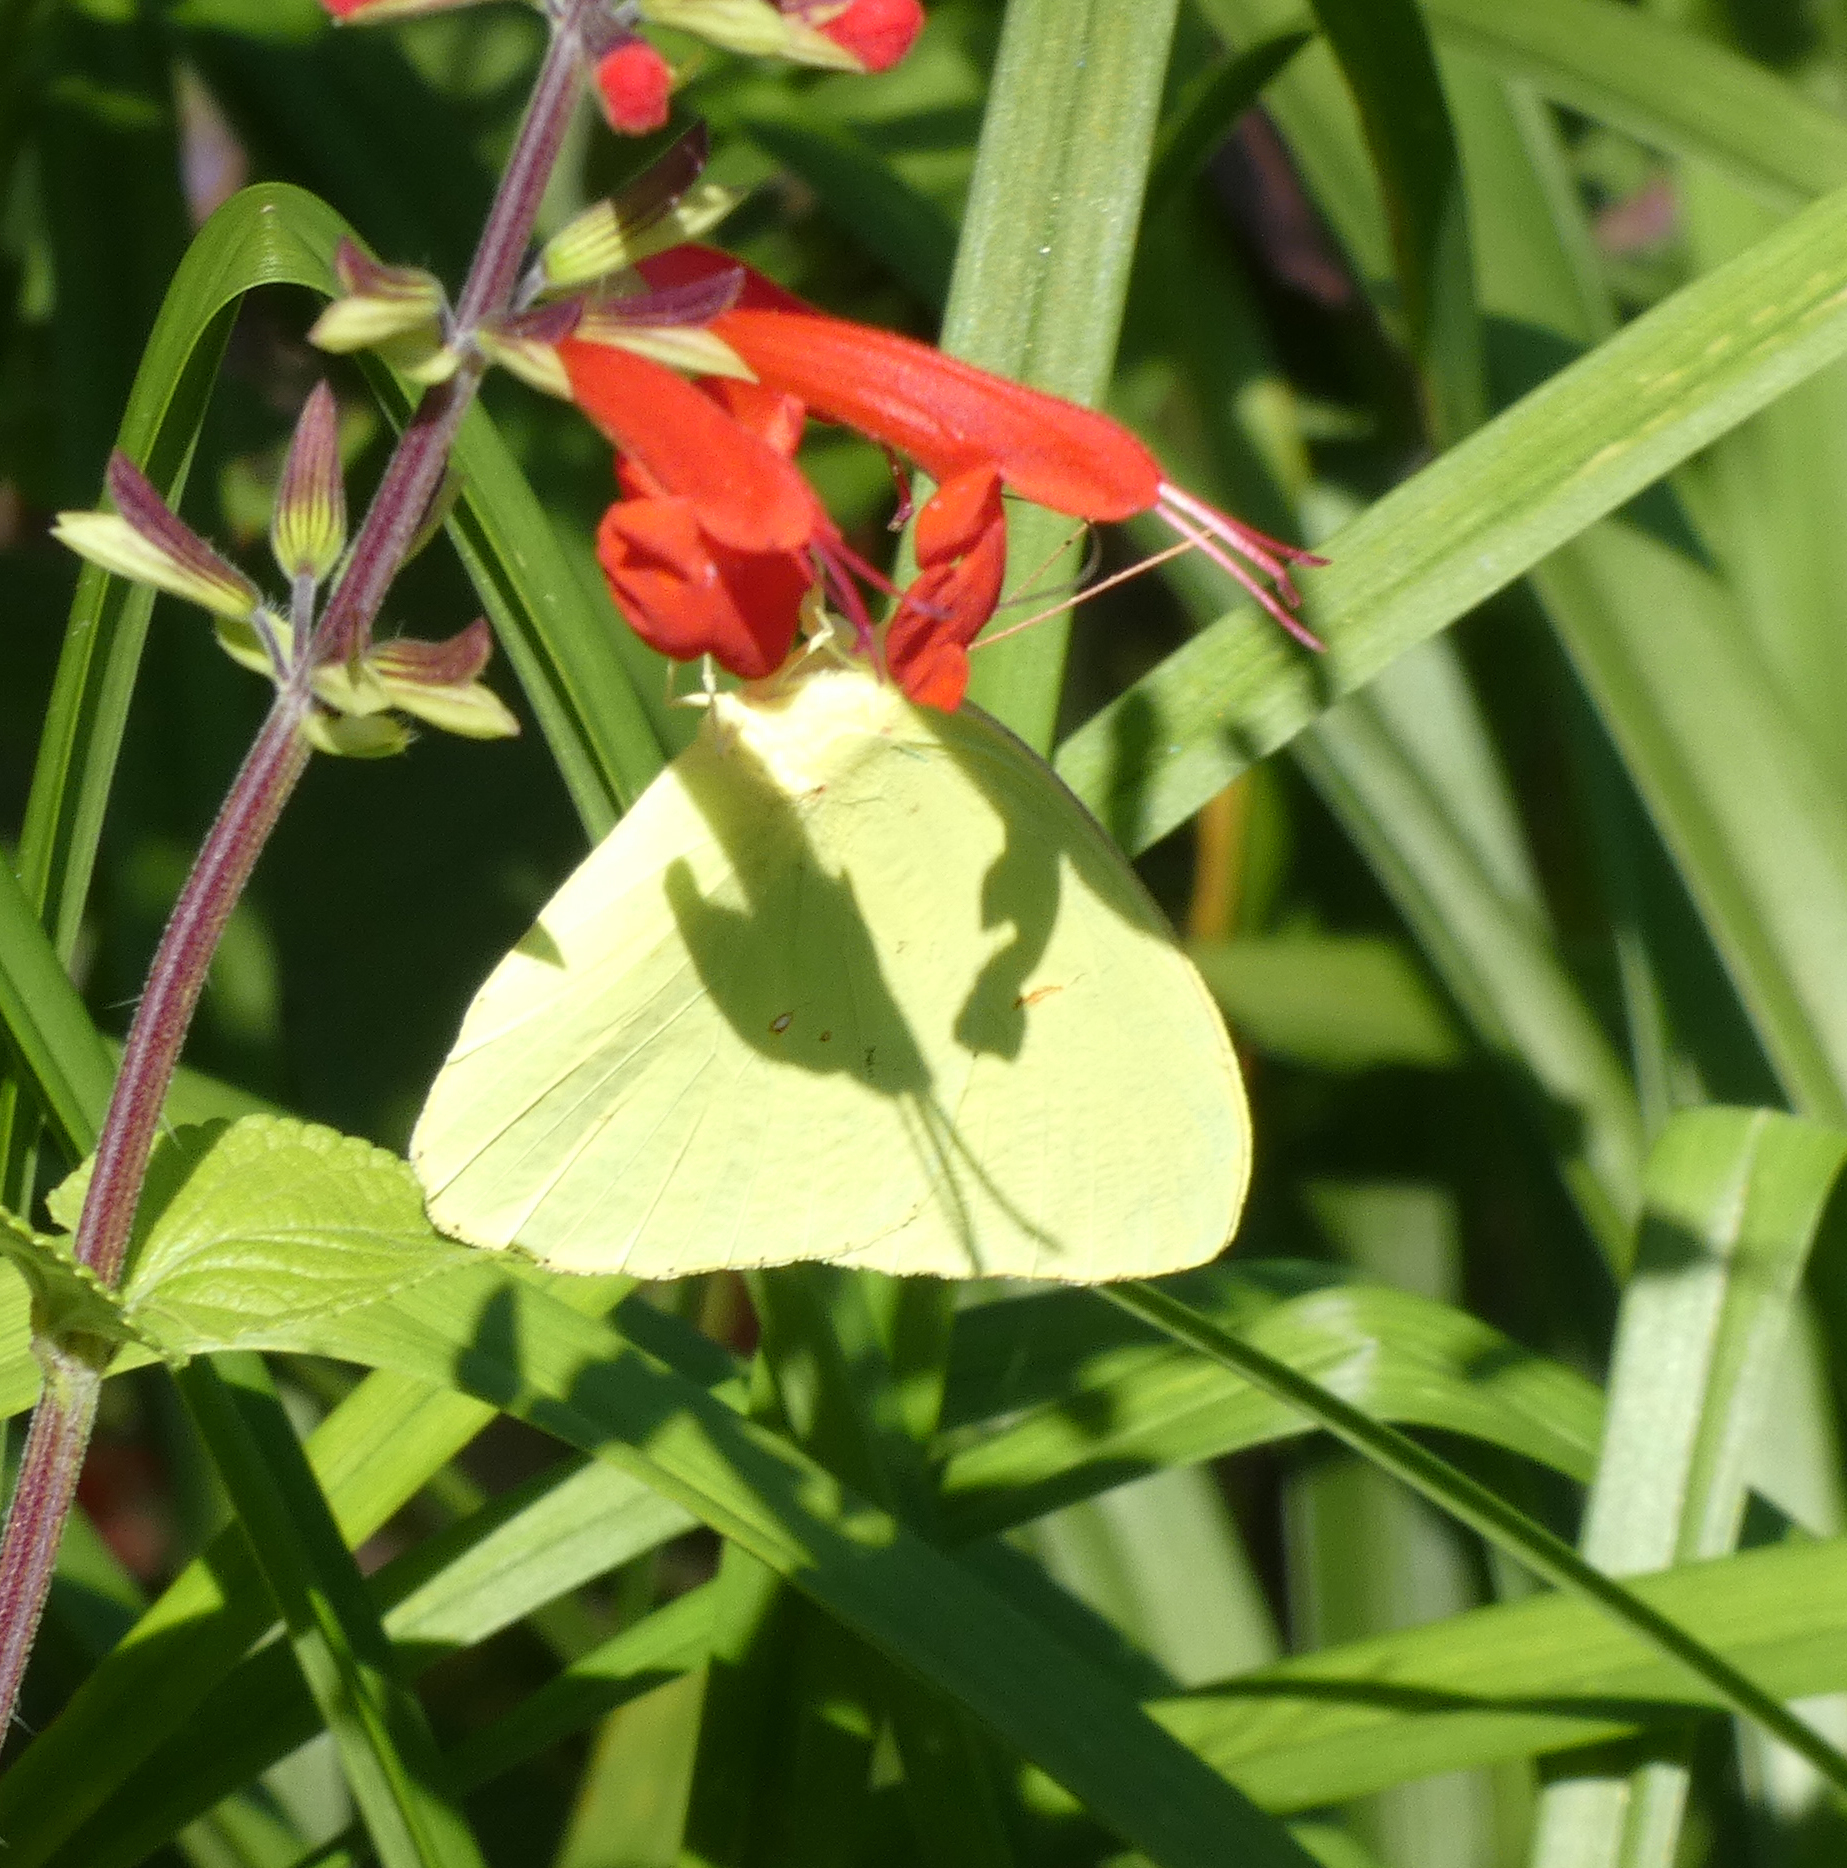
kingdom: Animalia
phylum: Arthropoda
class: Insecta
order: Lepidoptera
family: Pieridae
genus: Phoebis
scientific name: Phoebis sennae
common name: Cloudless sulphur
